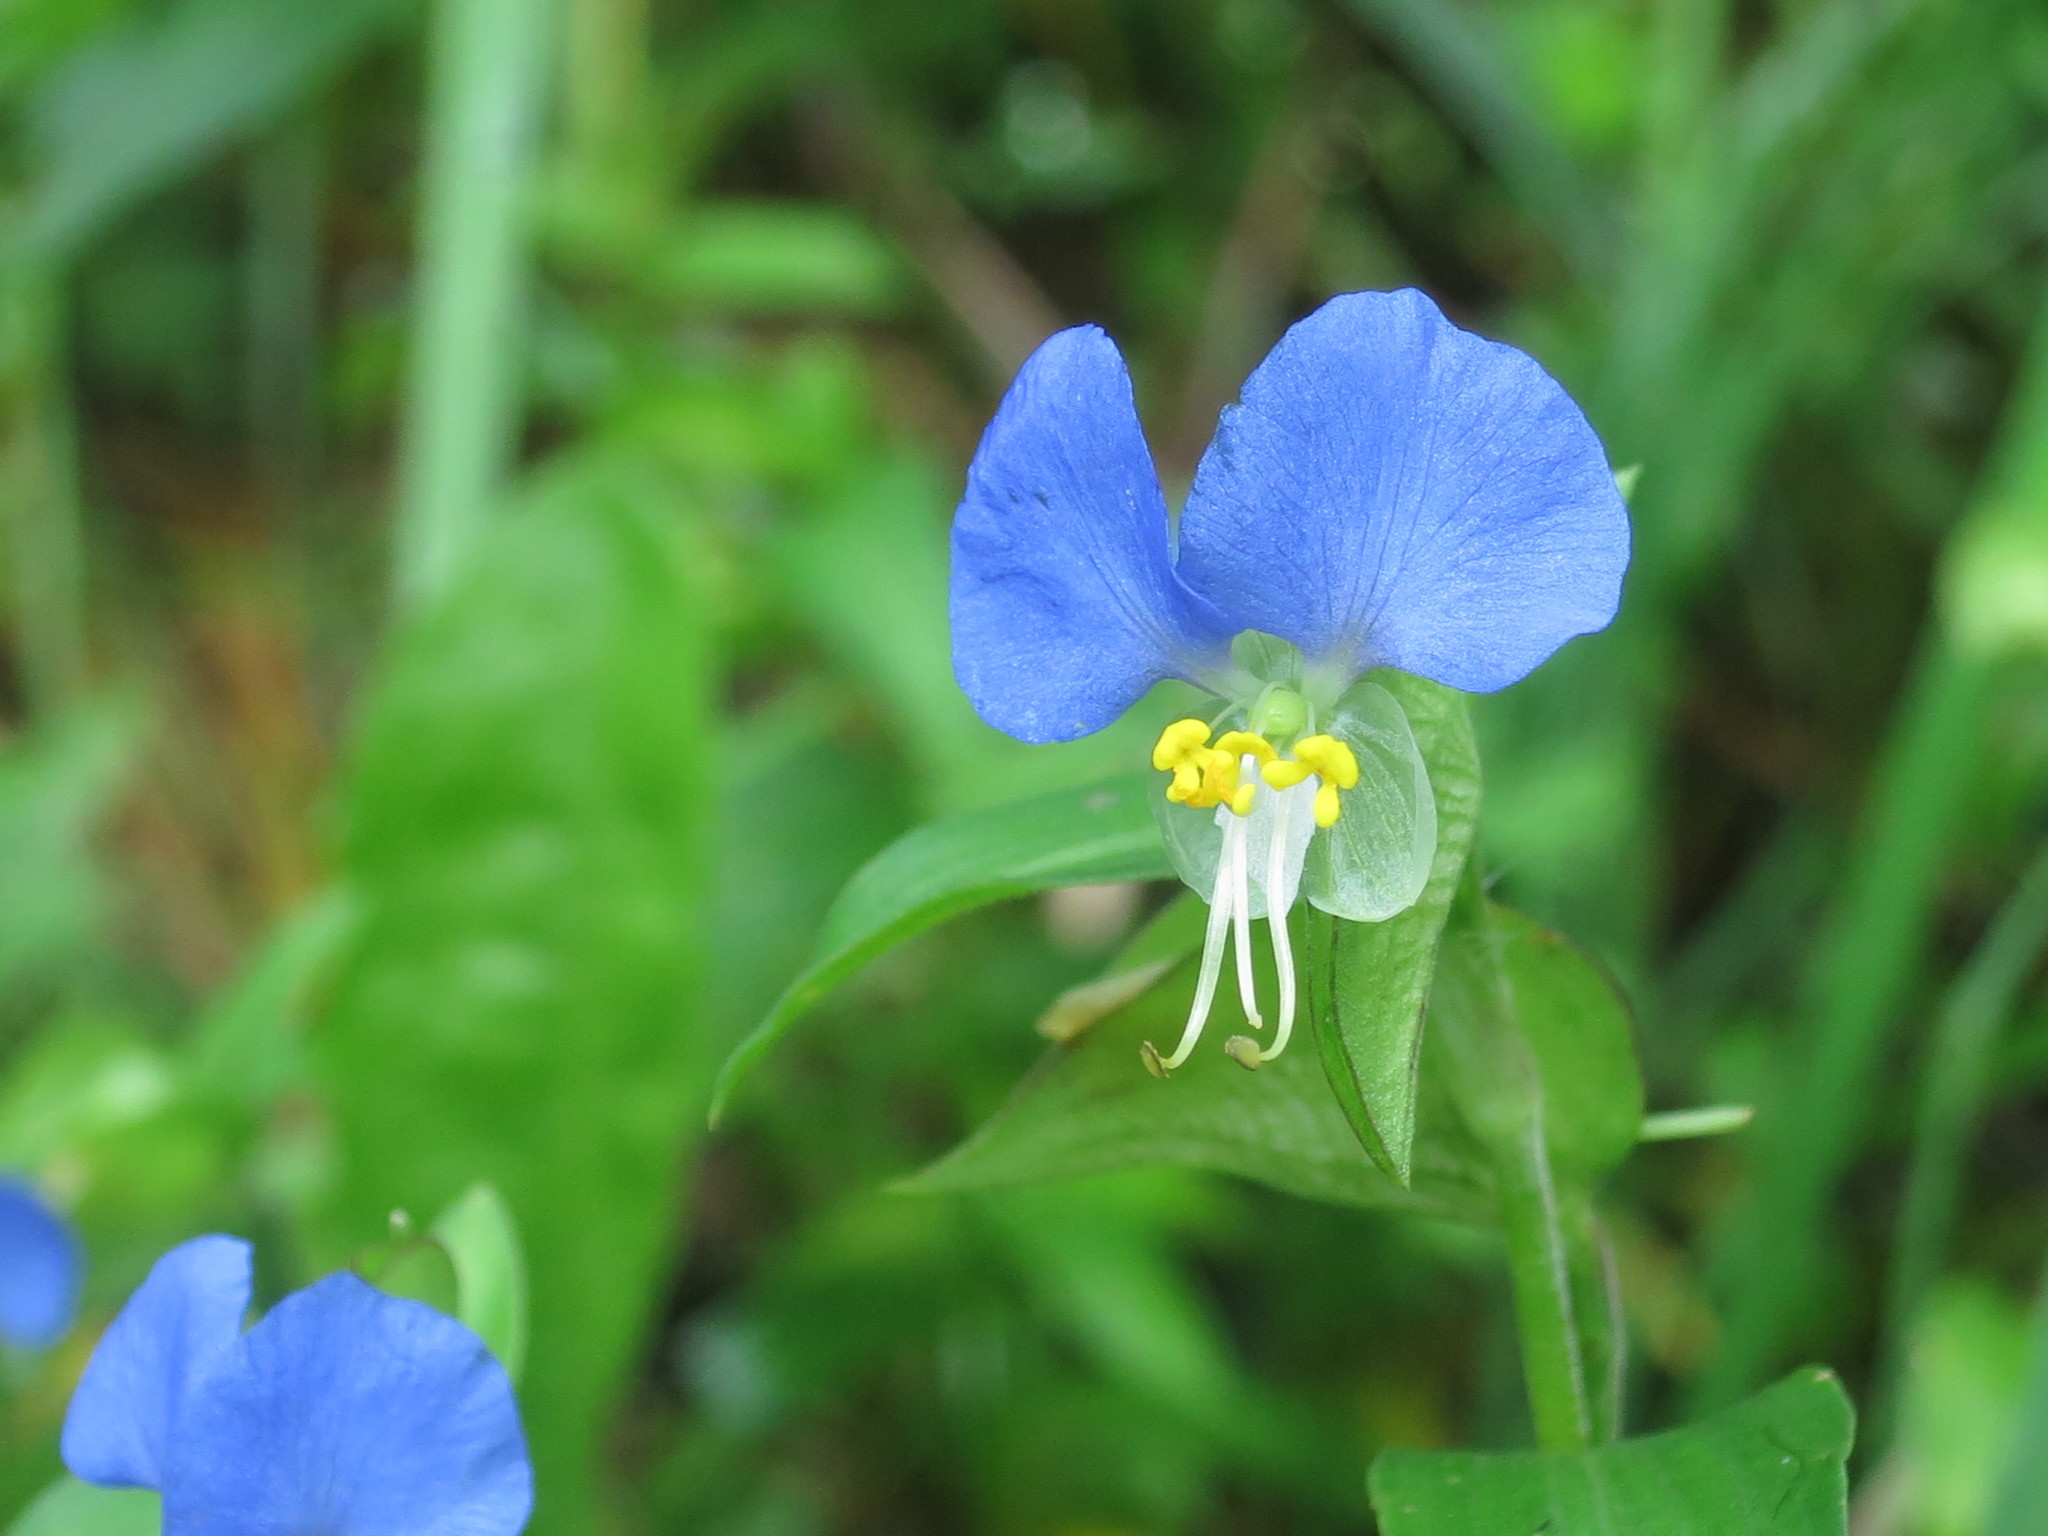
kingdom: Plantae
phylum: Tracheophyta
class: Liliopsida
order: Commelinales
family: Commelinaceae
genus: Commelina
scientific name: Commelina communis
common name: Asiatic dayflower
